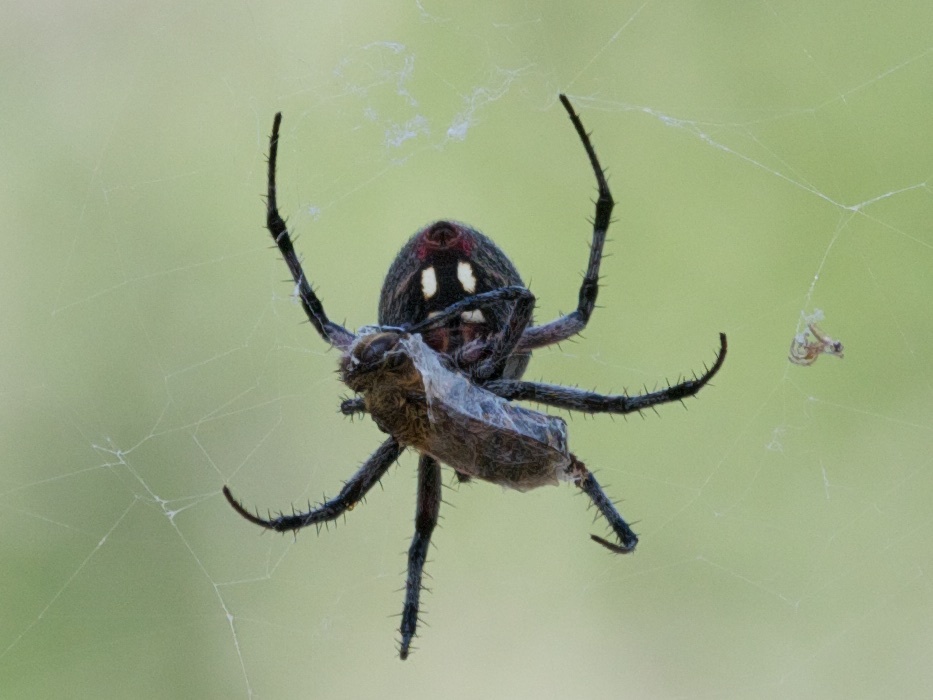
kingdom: Animalia
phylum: Arthropoda
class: Arachnida
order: Araneae
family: Araneidae
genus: Neoscona
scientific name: Neoscona oaxacensis
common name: Orb weavers
